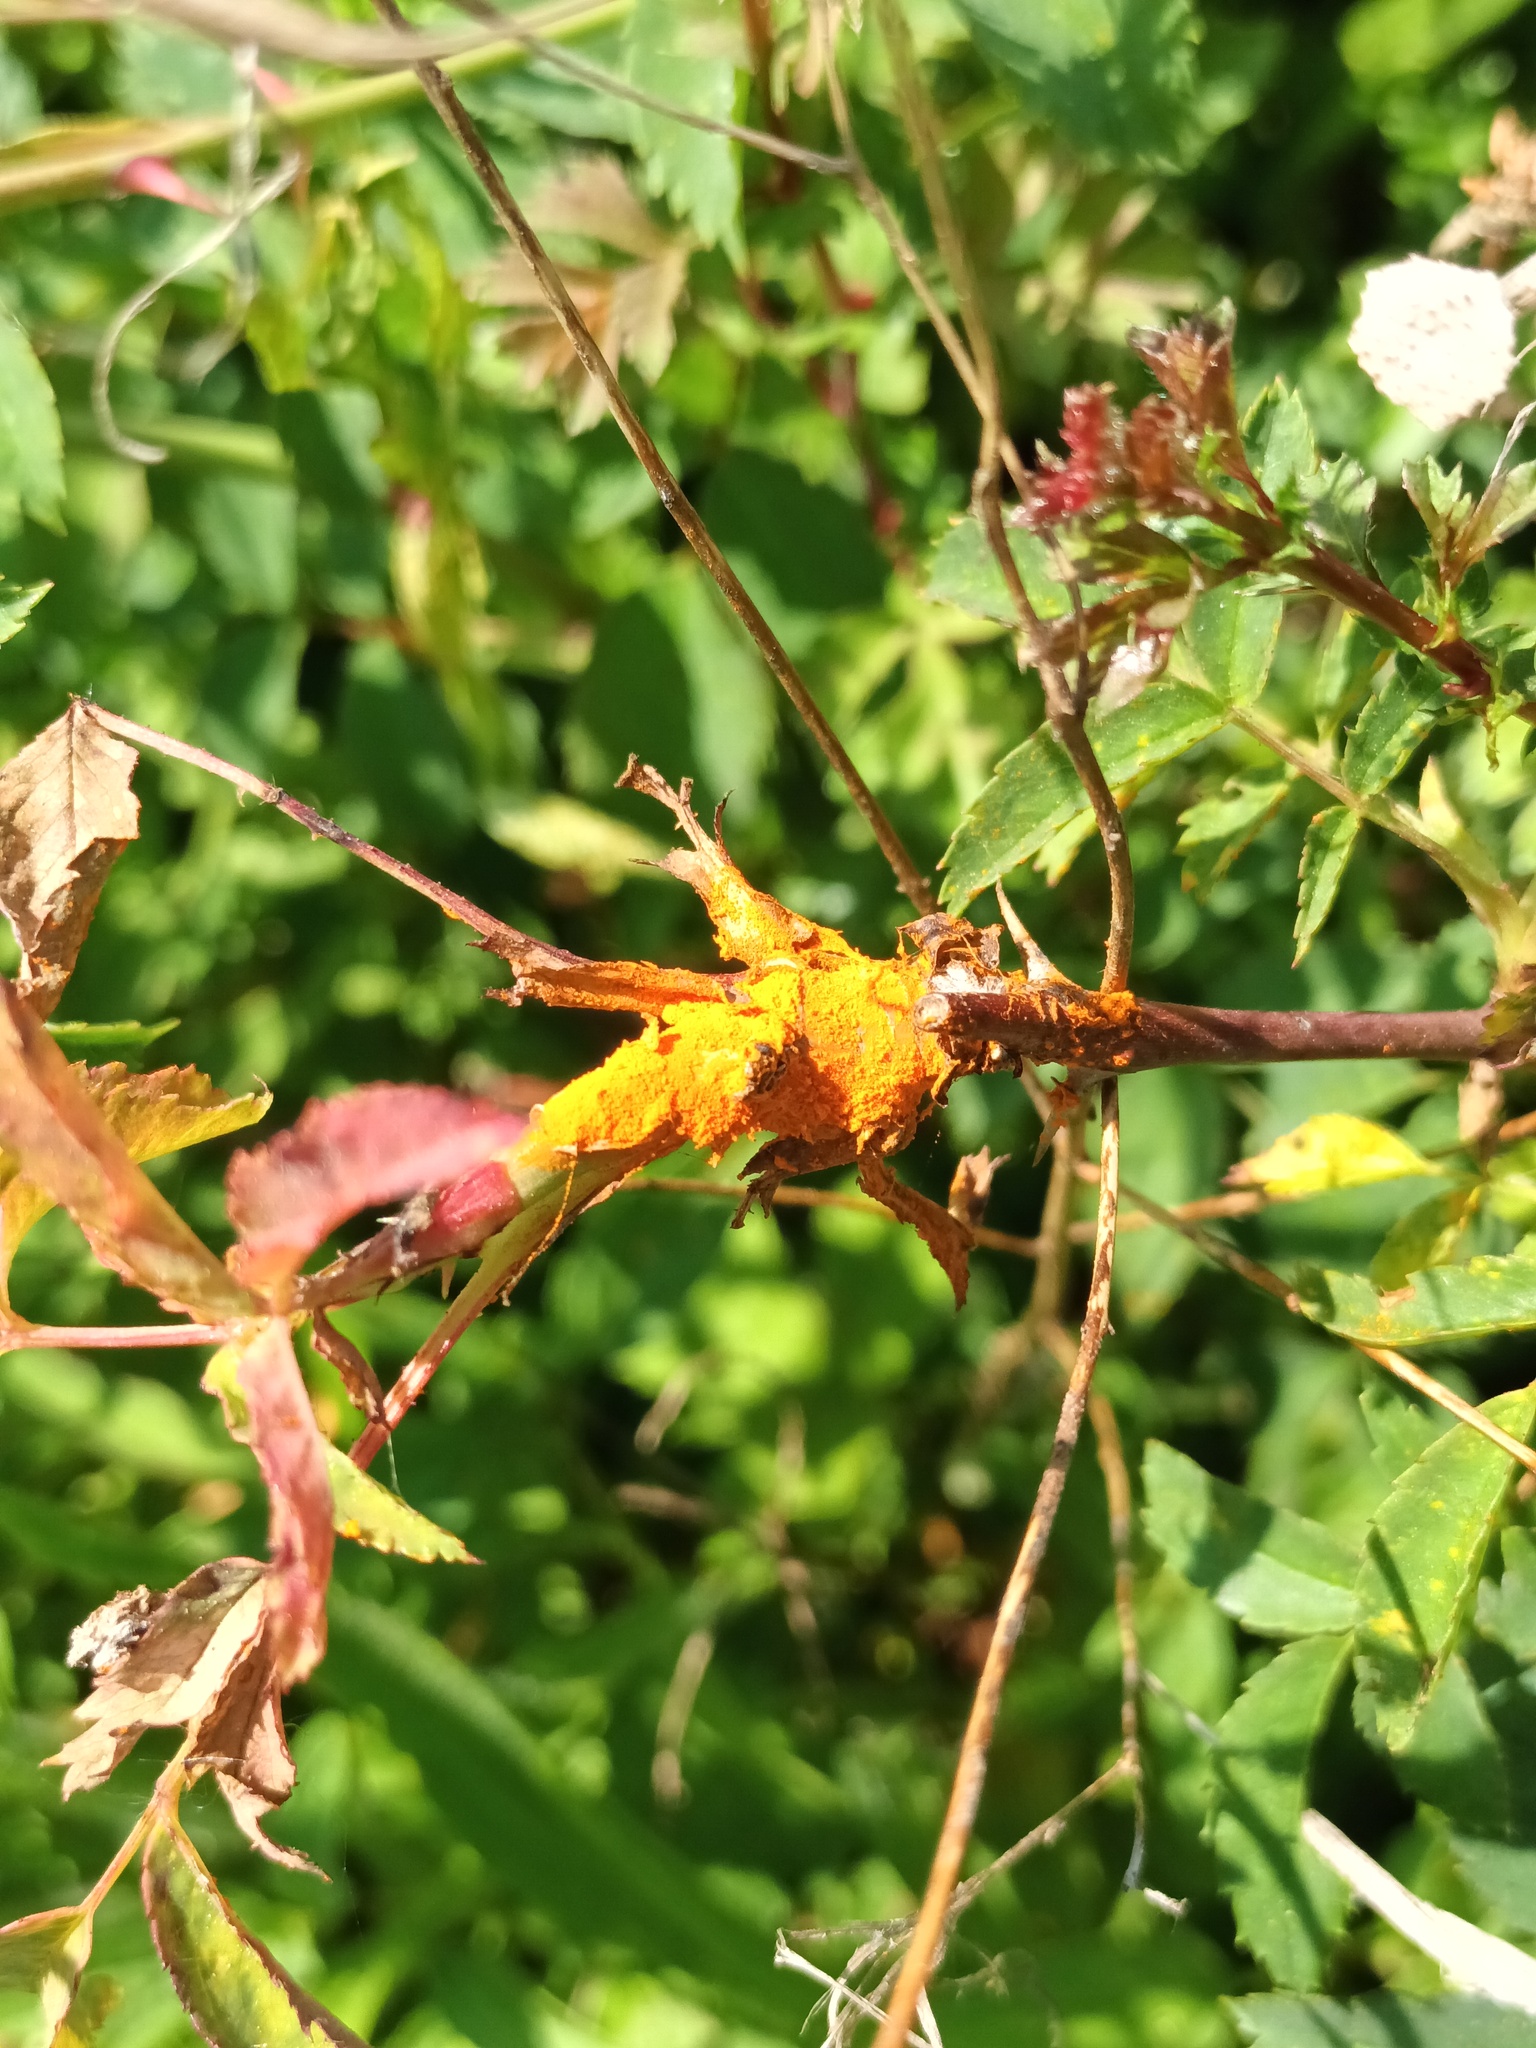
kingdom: Fungi
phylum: Basidiomycota
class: Pucciniomycetes
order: Pucciniales
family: Phragmidiaceae
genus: Phragmidium
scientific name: Phragmidium
